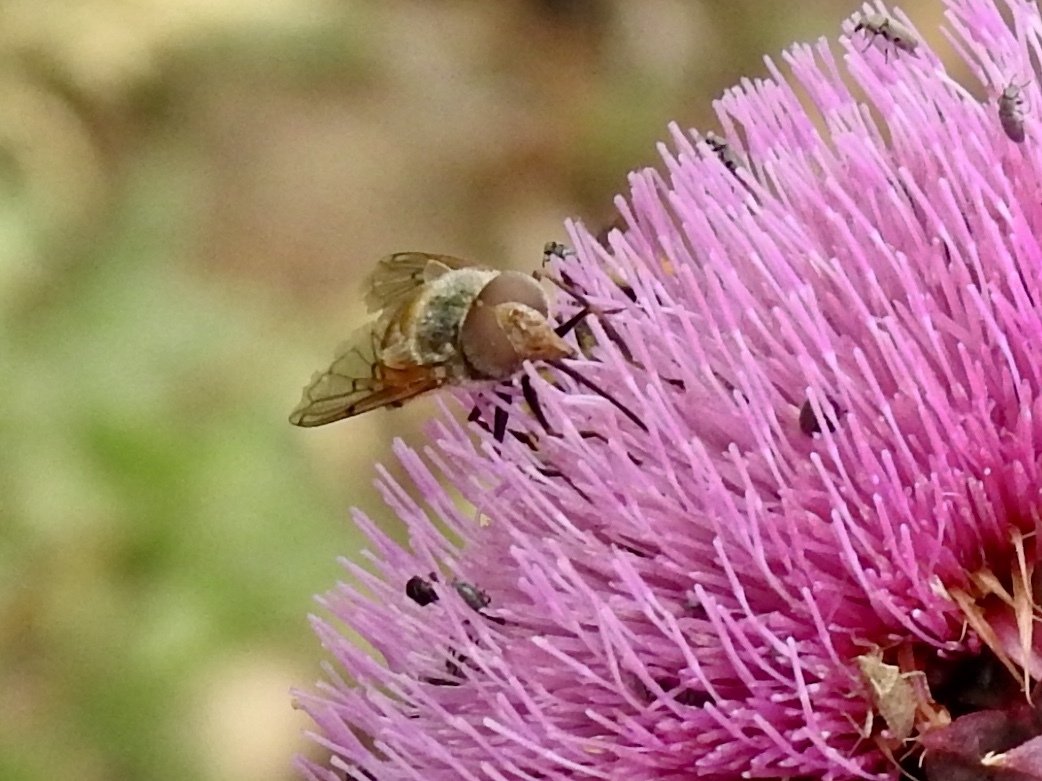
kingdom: Animalia
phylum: Arthropoda
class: Insecta
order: Diptera
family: Syrphidae
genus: Copestylum
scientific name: Copestylum haagii
